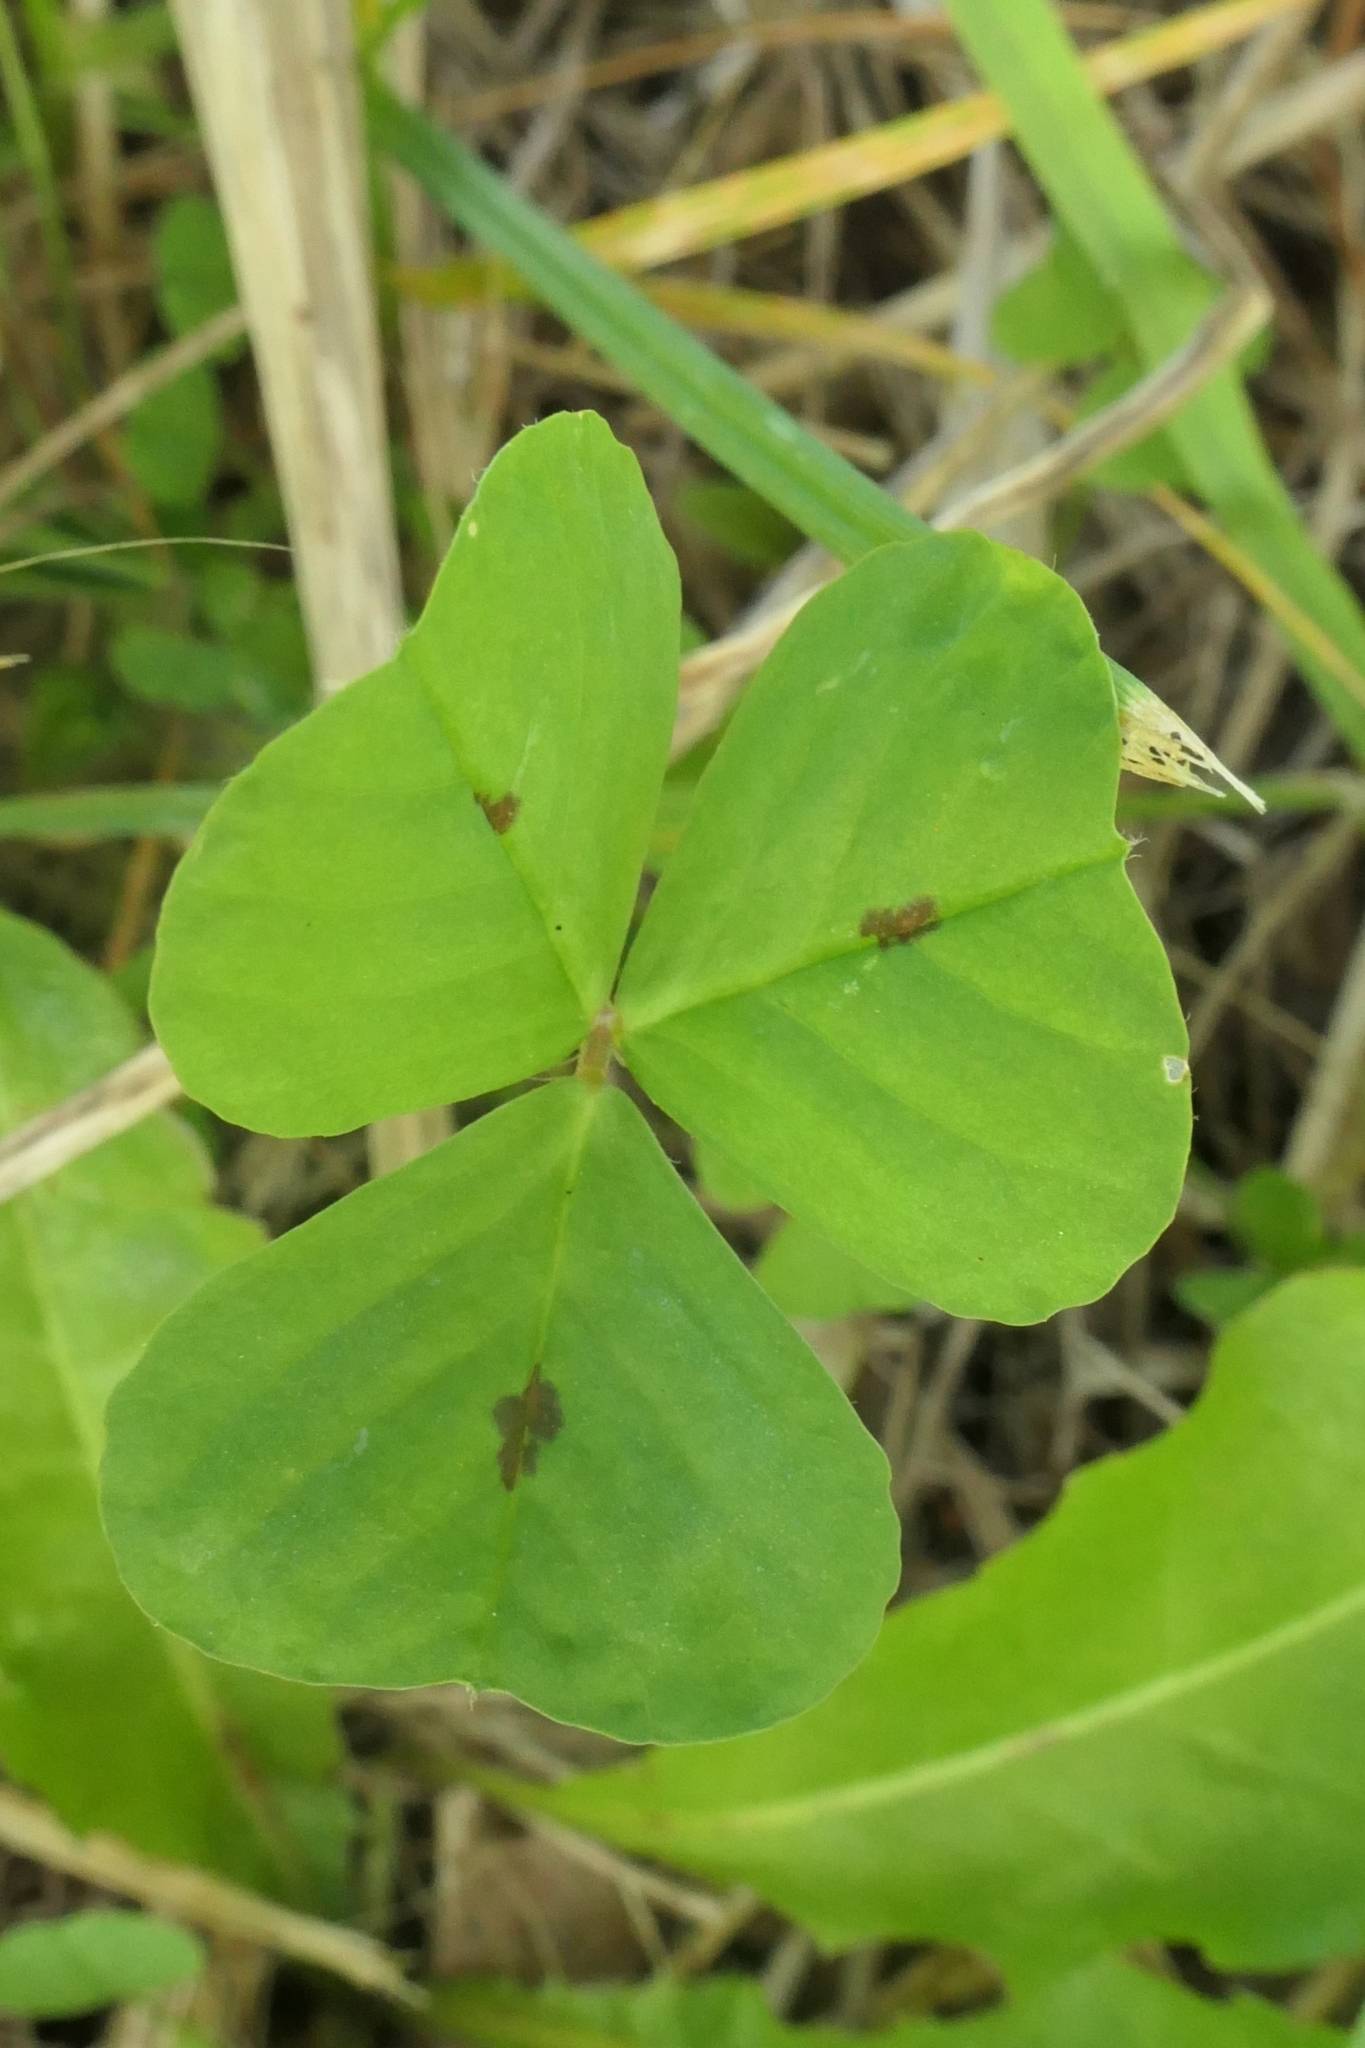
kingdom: Plantae
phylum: Tracheophyta
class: Magnoliopsida
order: Fabales
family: Fabaceae
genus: Medicago
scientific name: Medicago arabica
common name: Spotted medick
